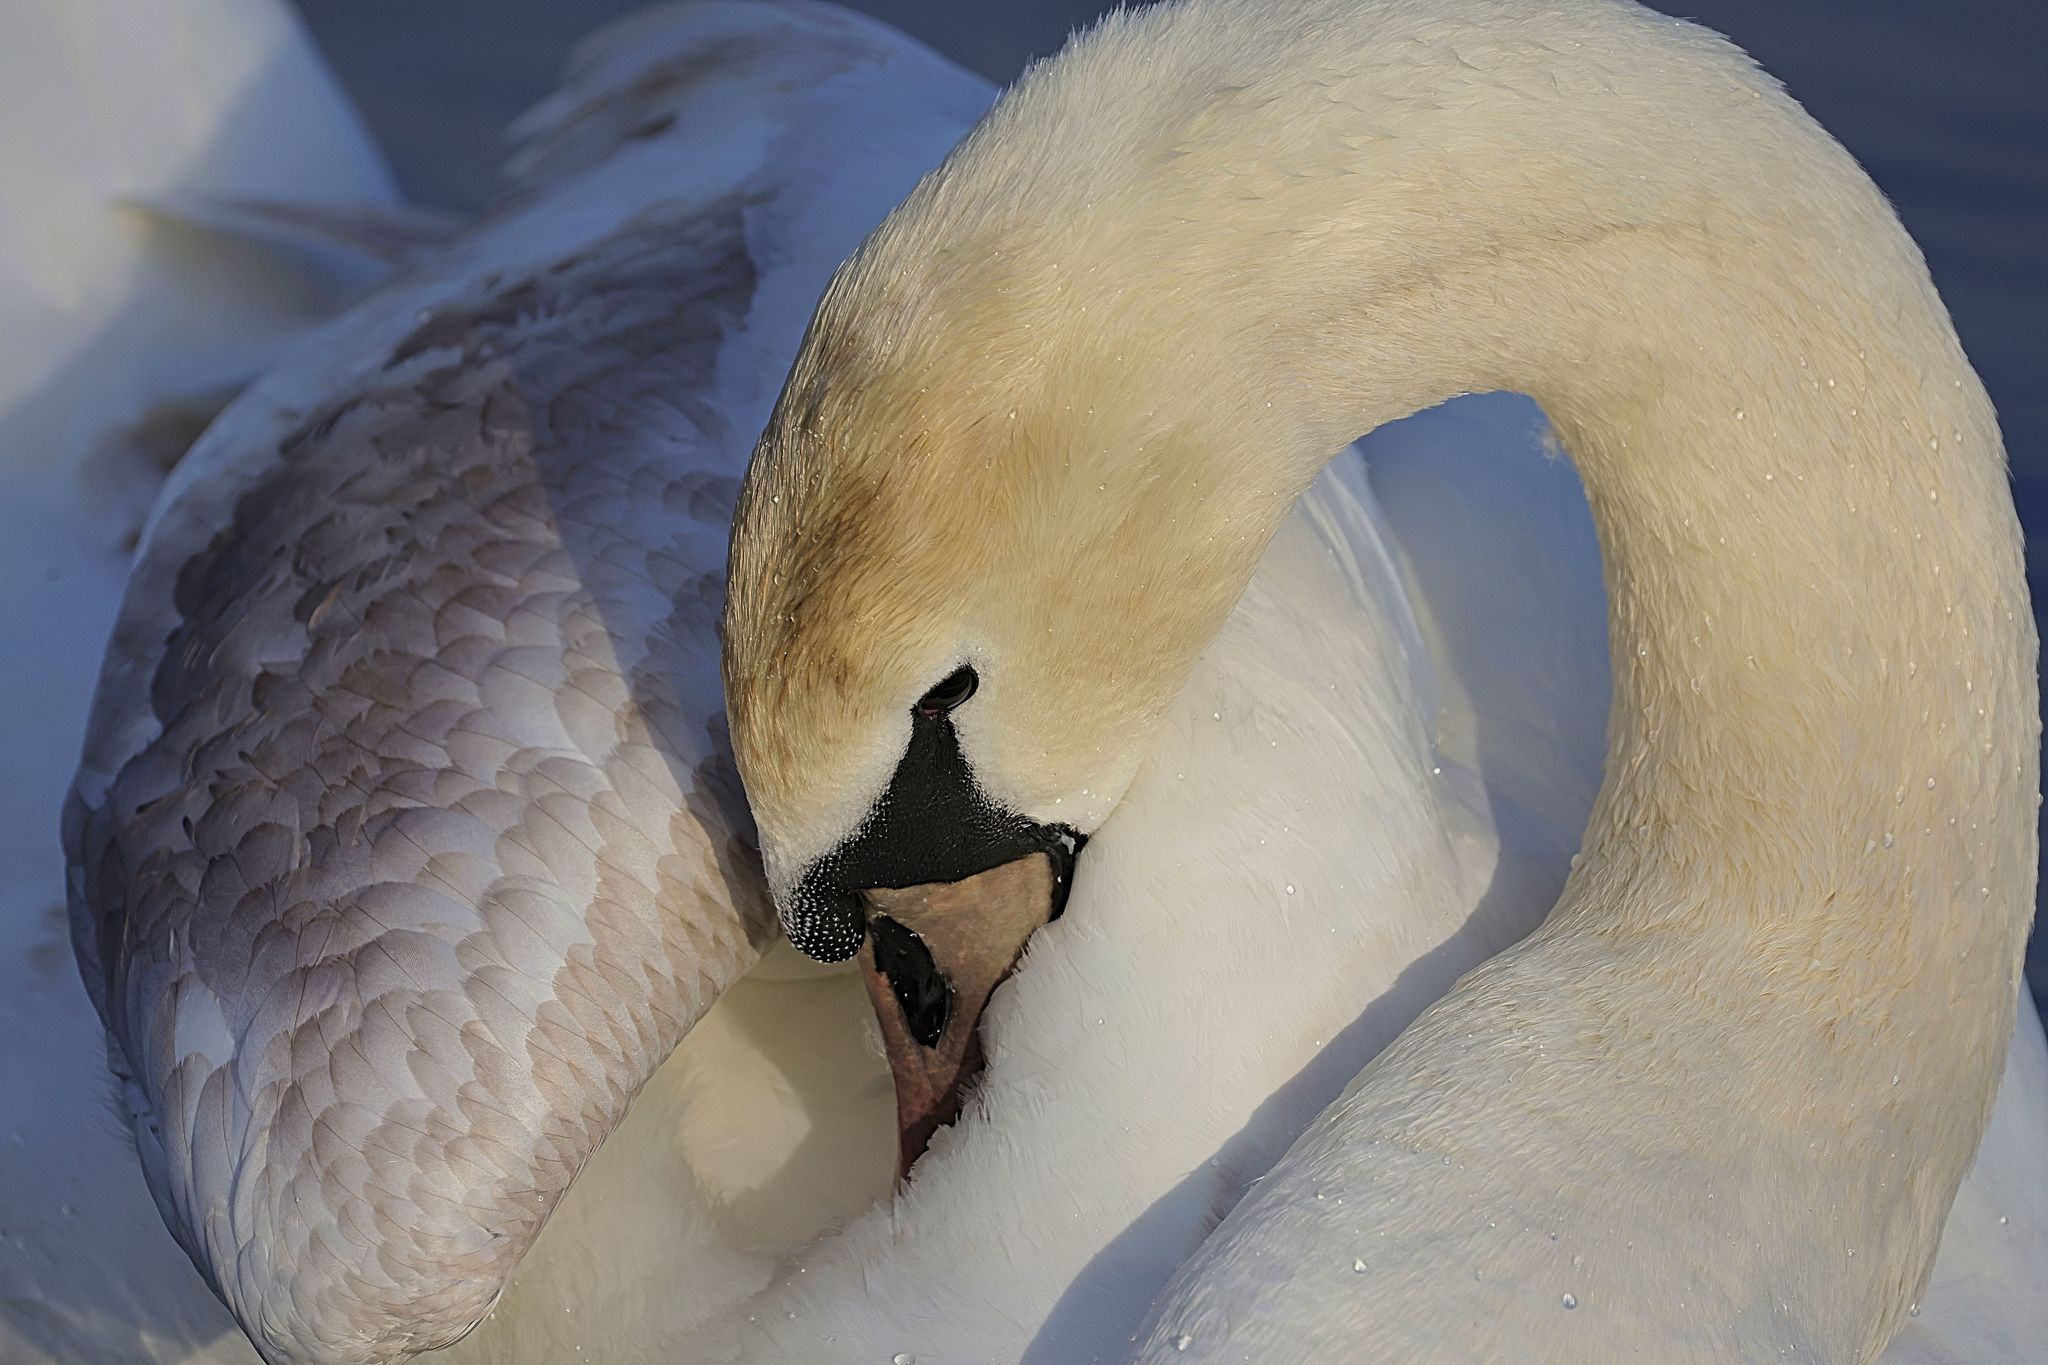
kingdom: Animalia
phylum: Chordata
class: Aves
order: Anseriformes
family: Anatidae
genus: Cygnus
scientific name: Cygnus olor
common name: Mute swan
